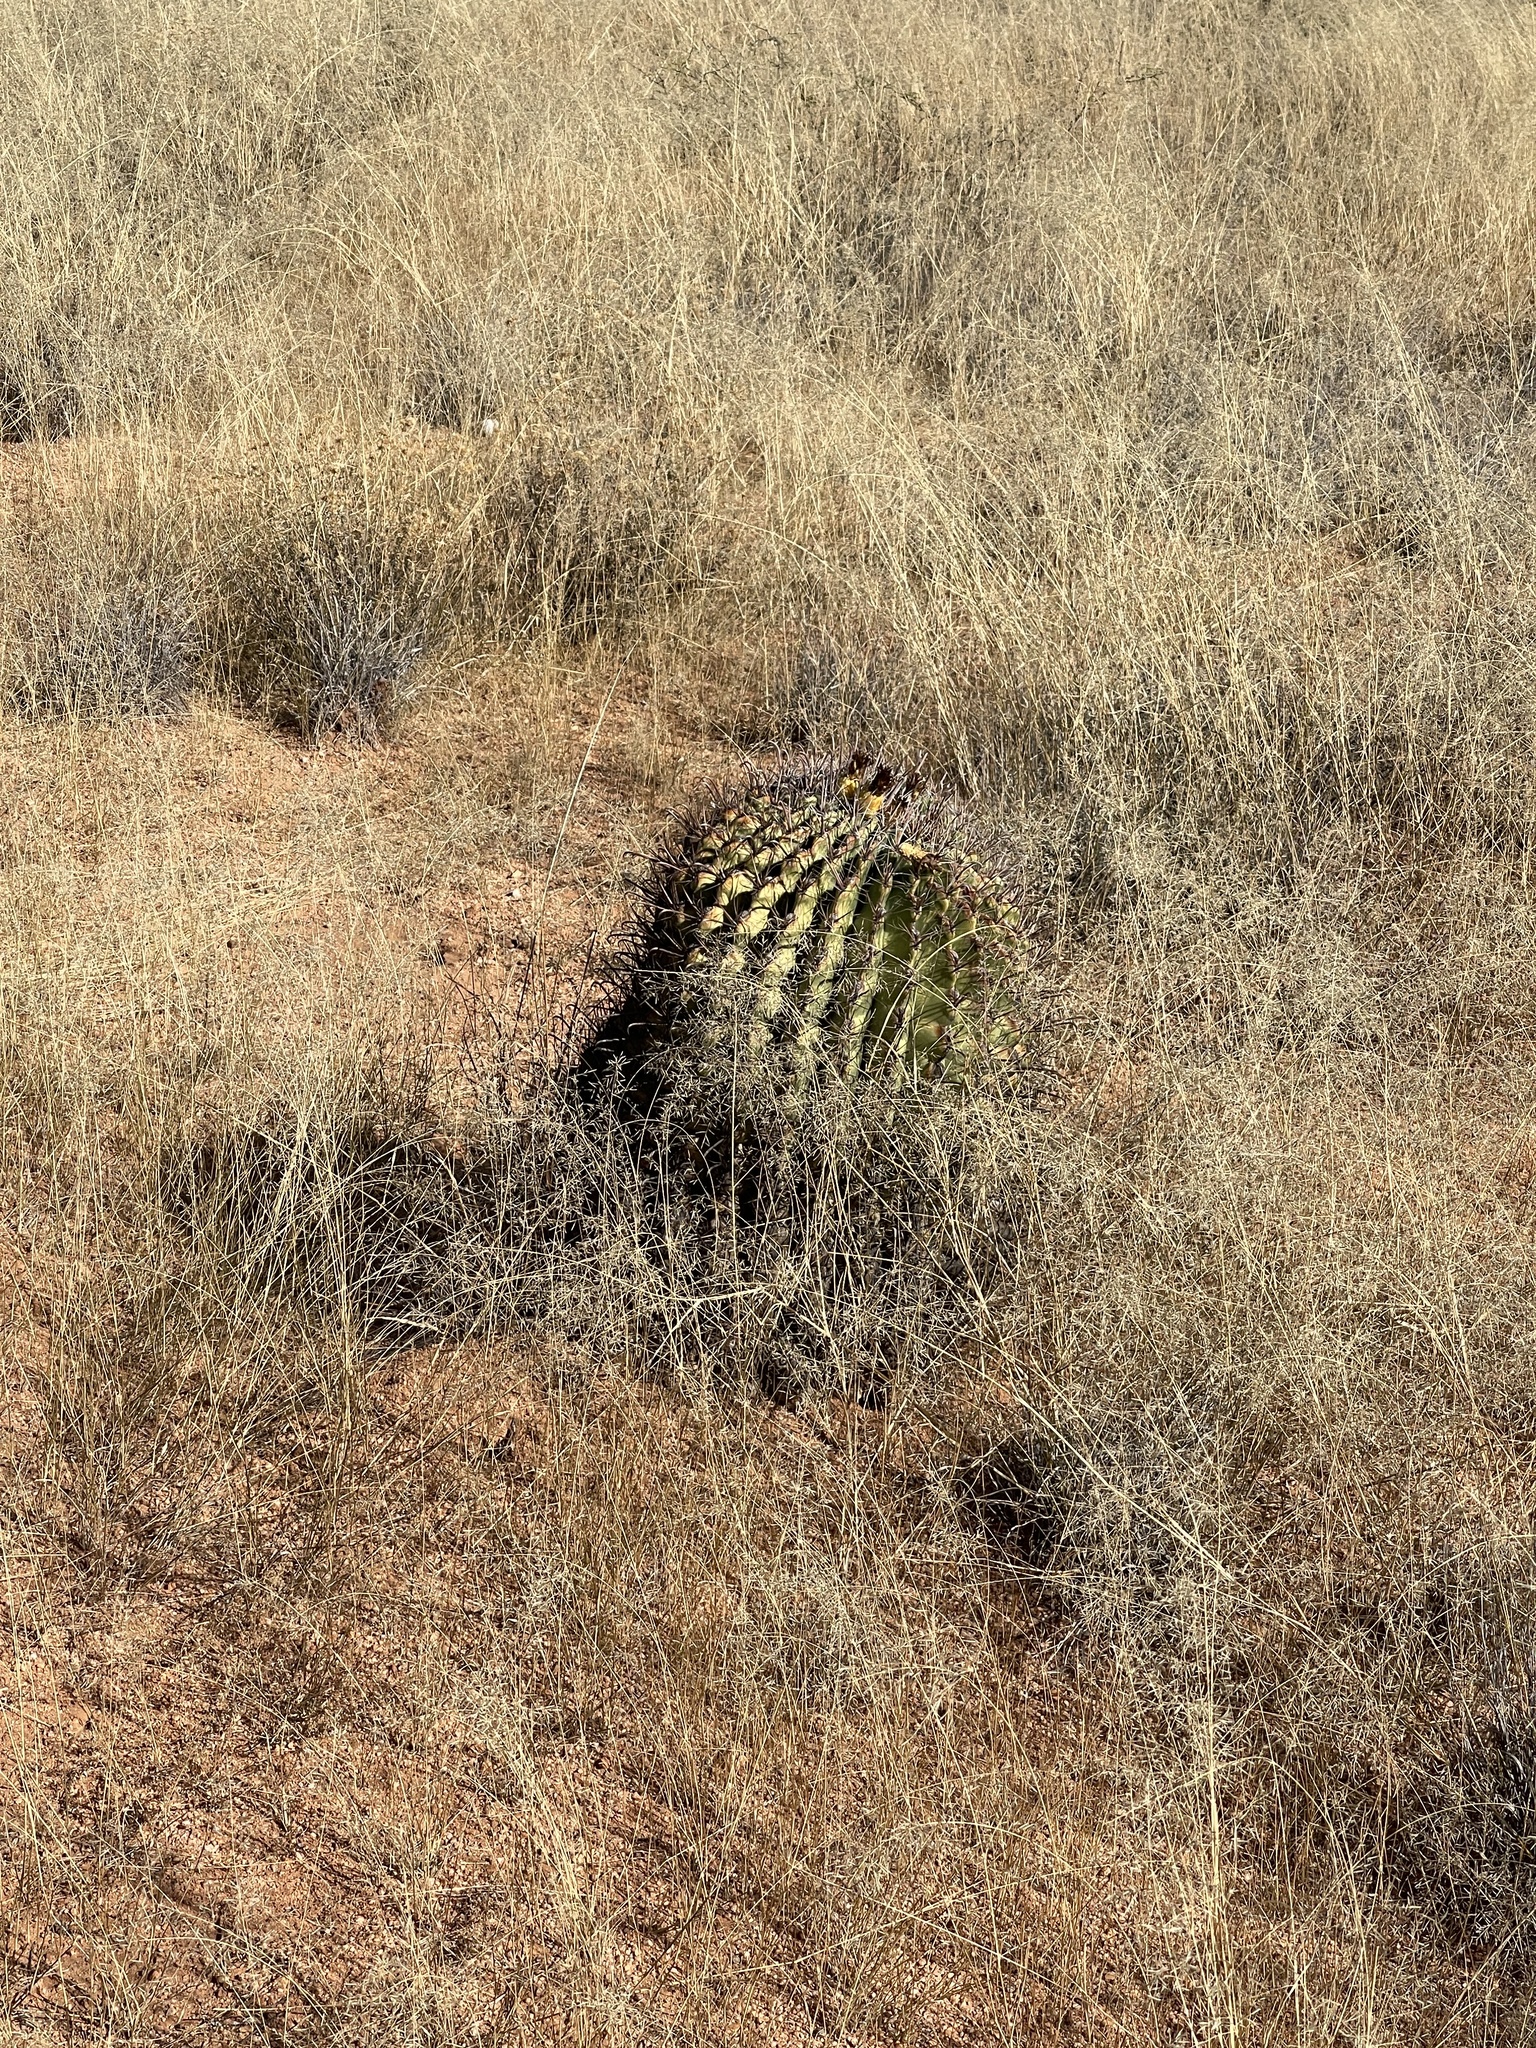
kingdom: Plantae
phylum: Tracheophyta
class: Magnoliopsida
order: Caryophyllales
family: Cactaceae
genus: Ferocactus
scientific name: Ferocactus wislizeni
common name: Candy barrel cactus
